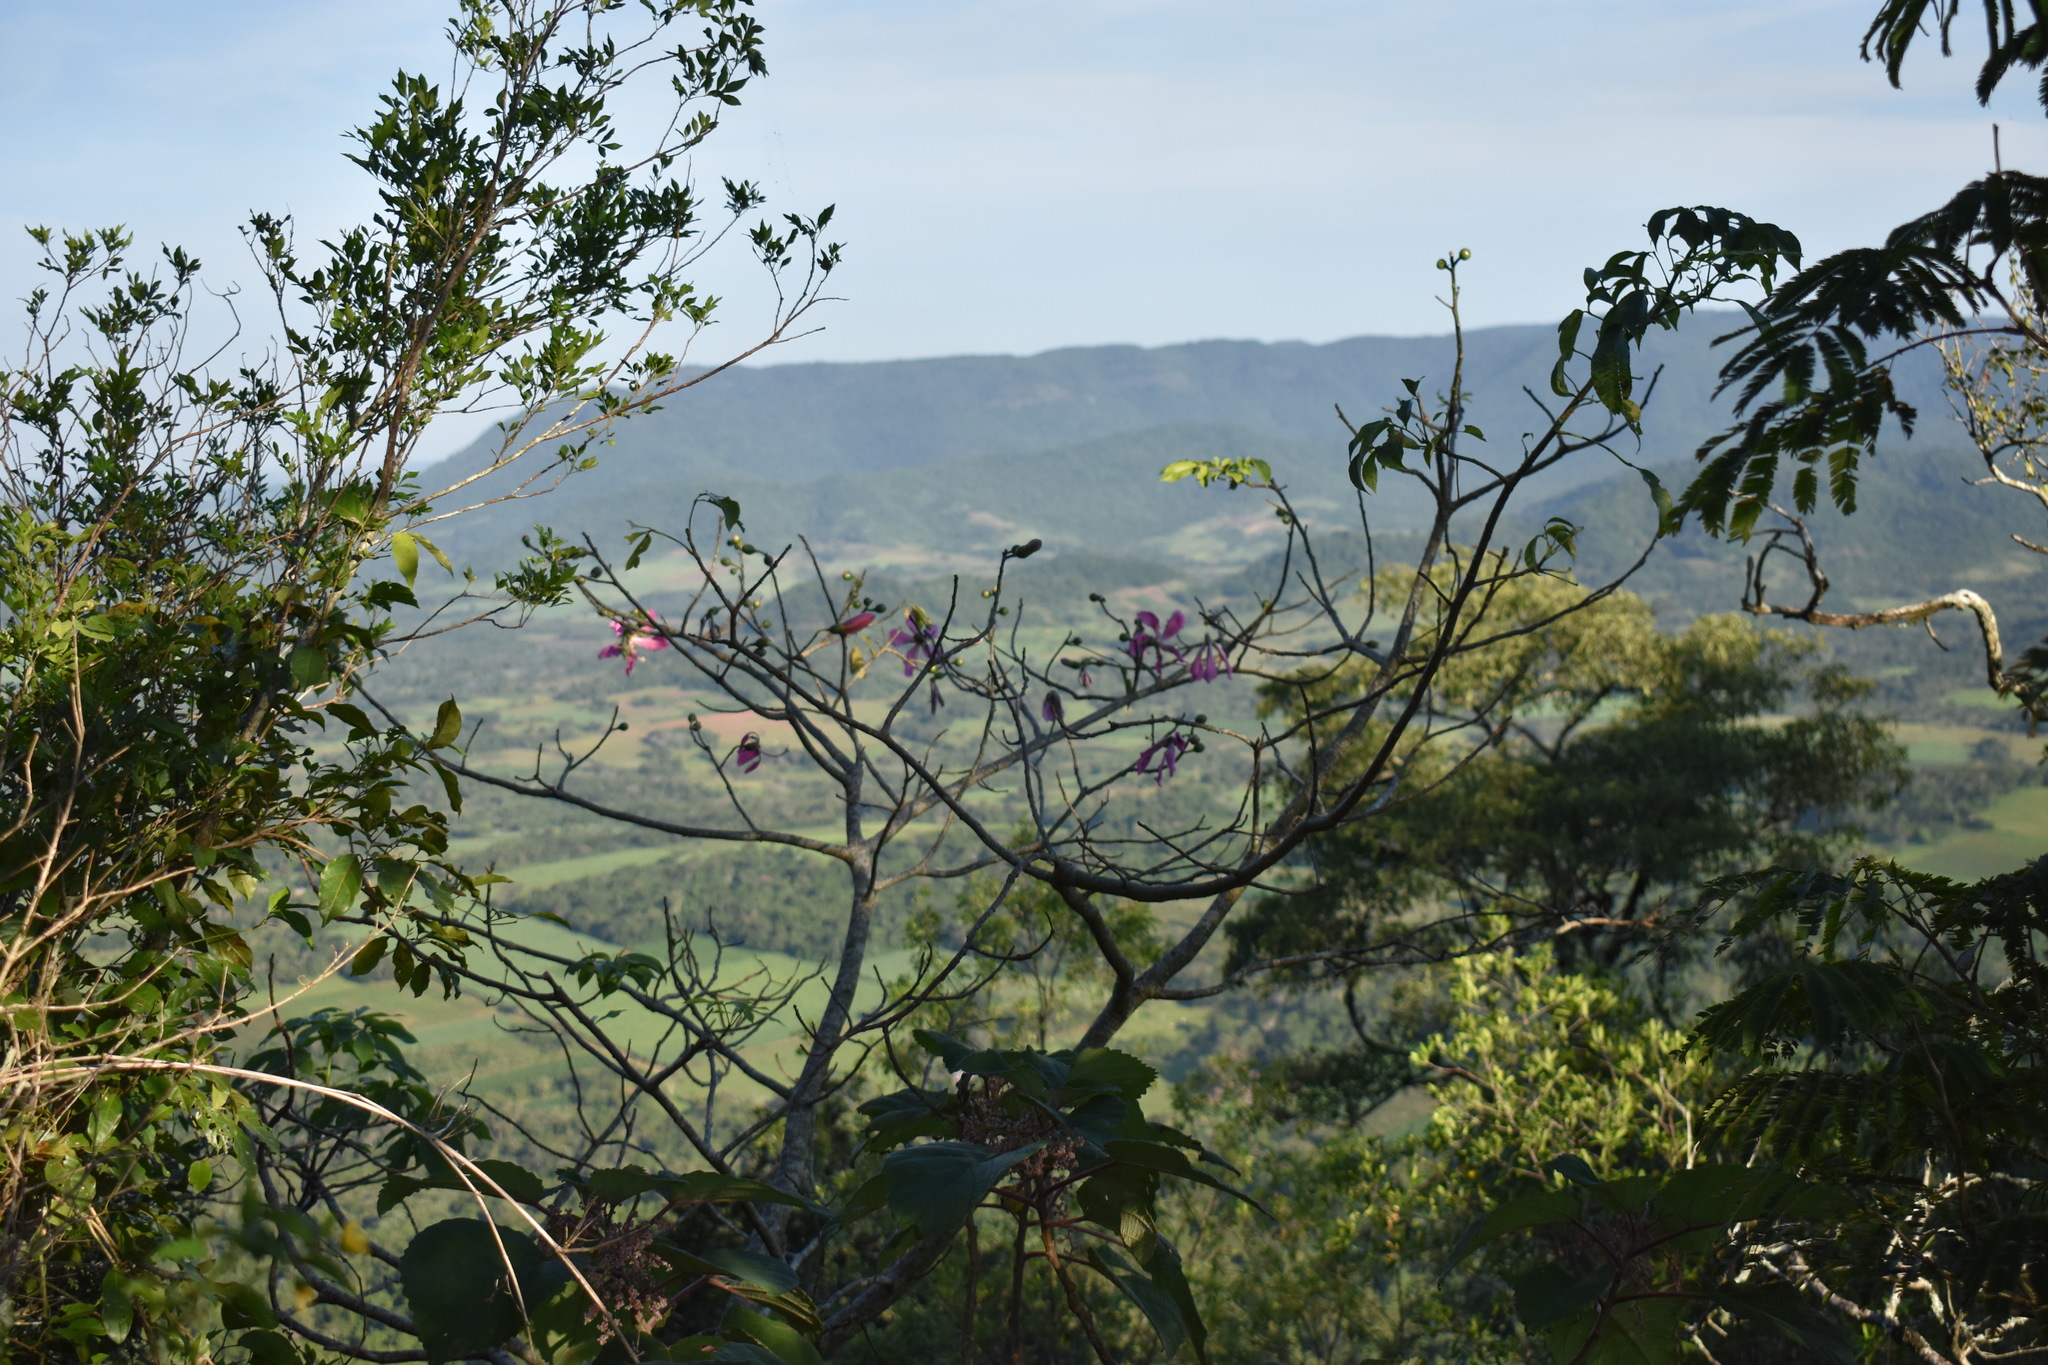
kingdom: Plantae
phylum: Tracheophyta
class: Magnoliopsida
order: Malvales
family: Malvaceae
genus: Ceiba
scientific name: Ceiba speciosa
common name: Silk-floss tree
